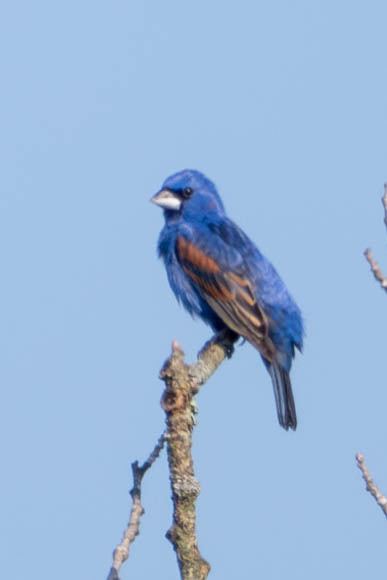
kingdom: Animalia
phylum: Chordata
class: Aves
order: Passeriformes
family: Cardinalidae
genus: Passerina
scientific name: Passerina caerulea
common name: Blue grosbeak
